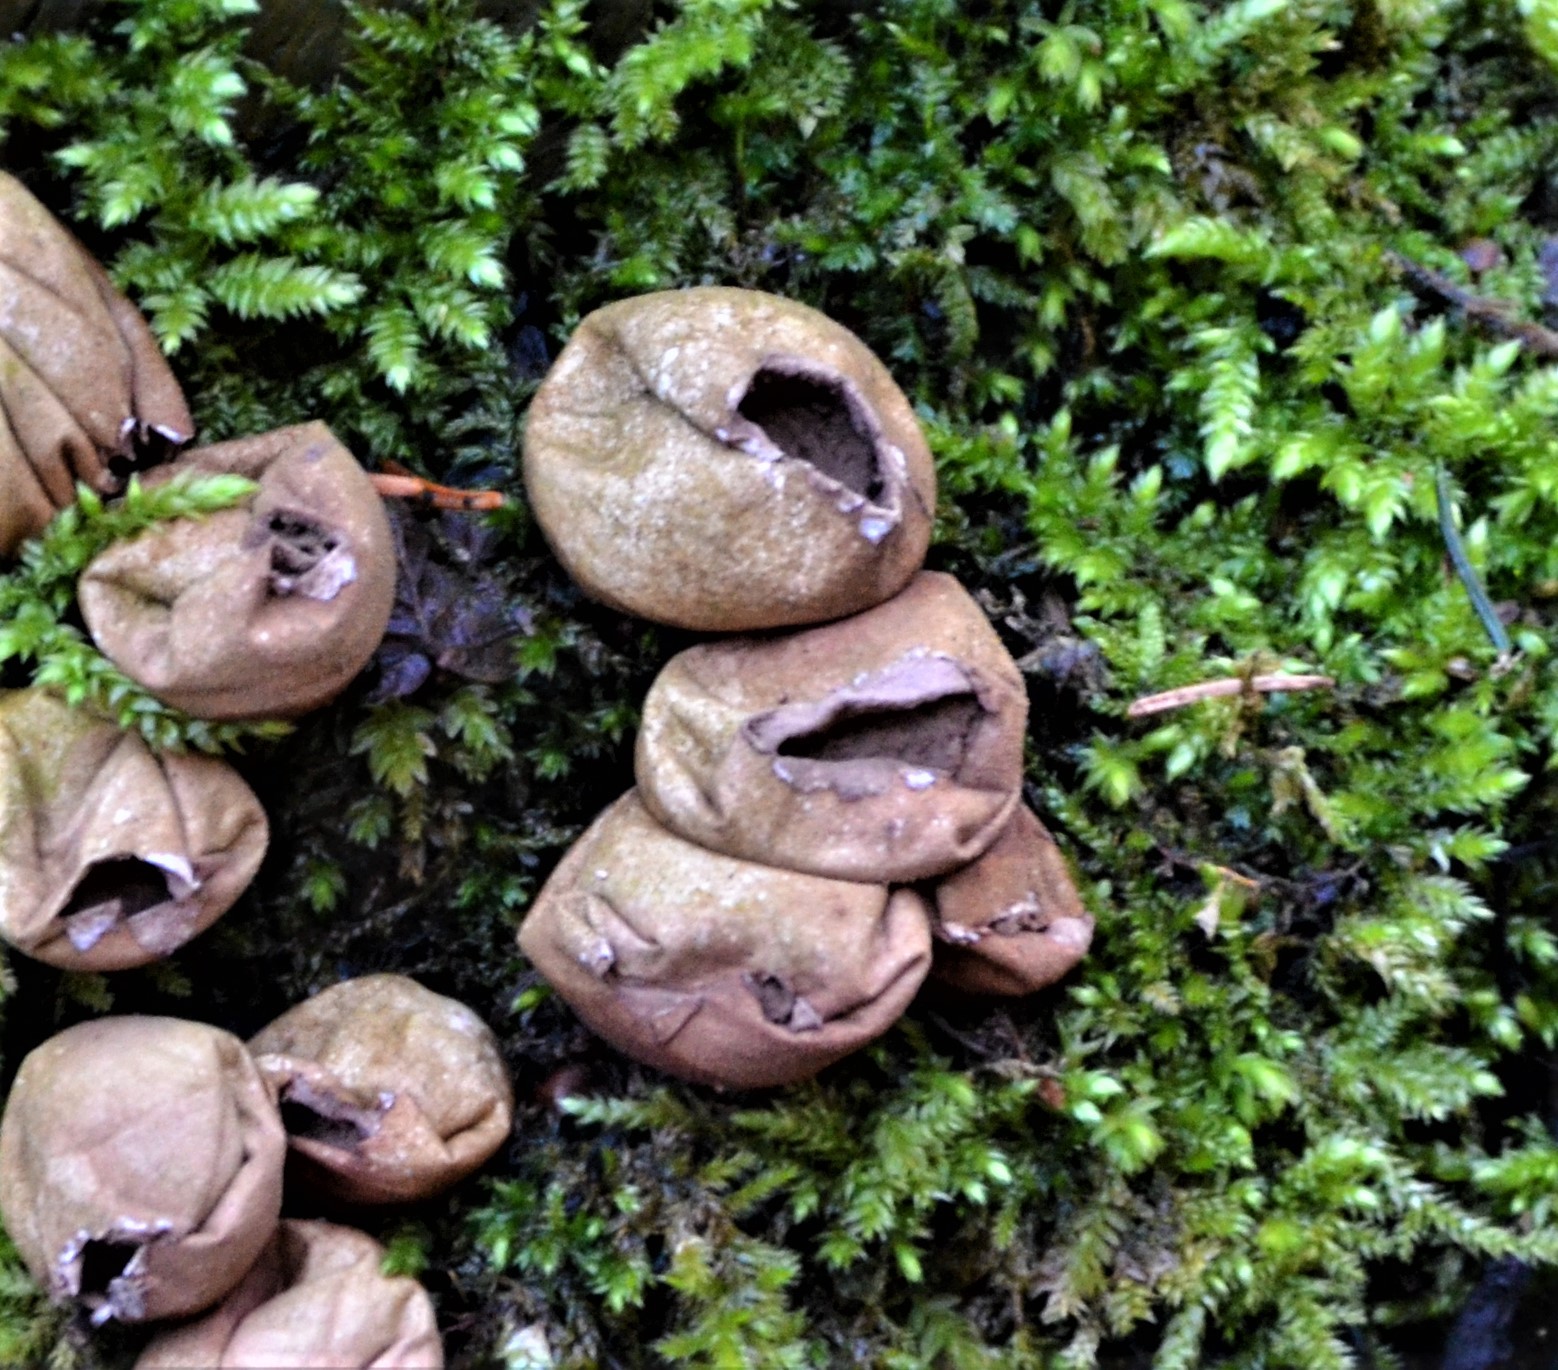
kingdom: Fungi
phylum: Basidiomycota
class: Agaricomycetes
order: Agaricales
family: Lycoperdaceae
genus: Apioperdon
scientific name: Apioperdon pyriforme
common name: Pear-shaped puffball
